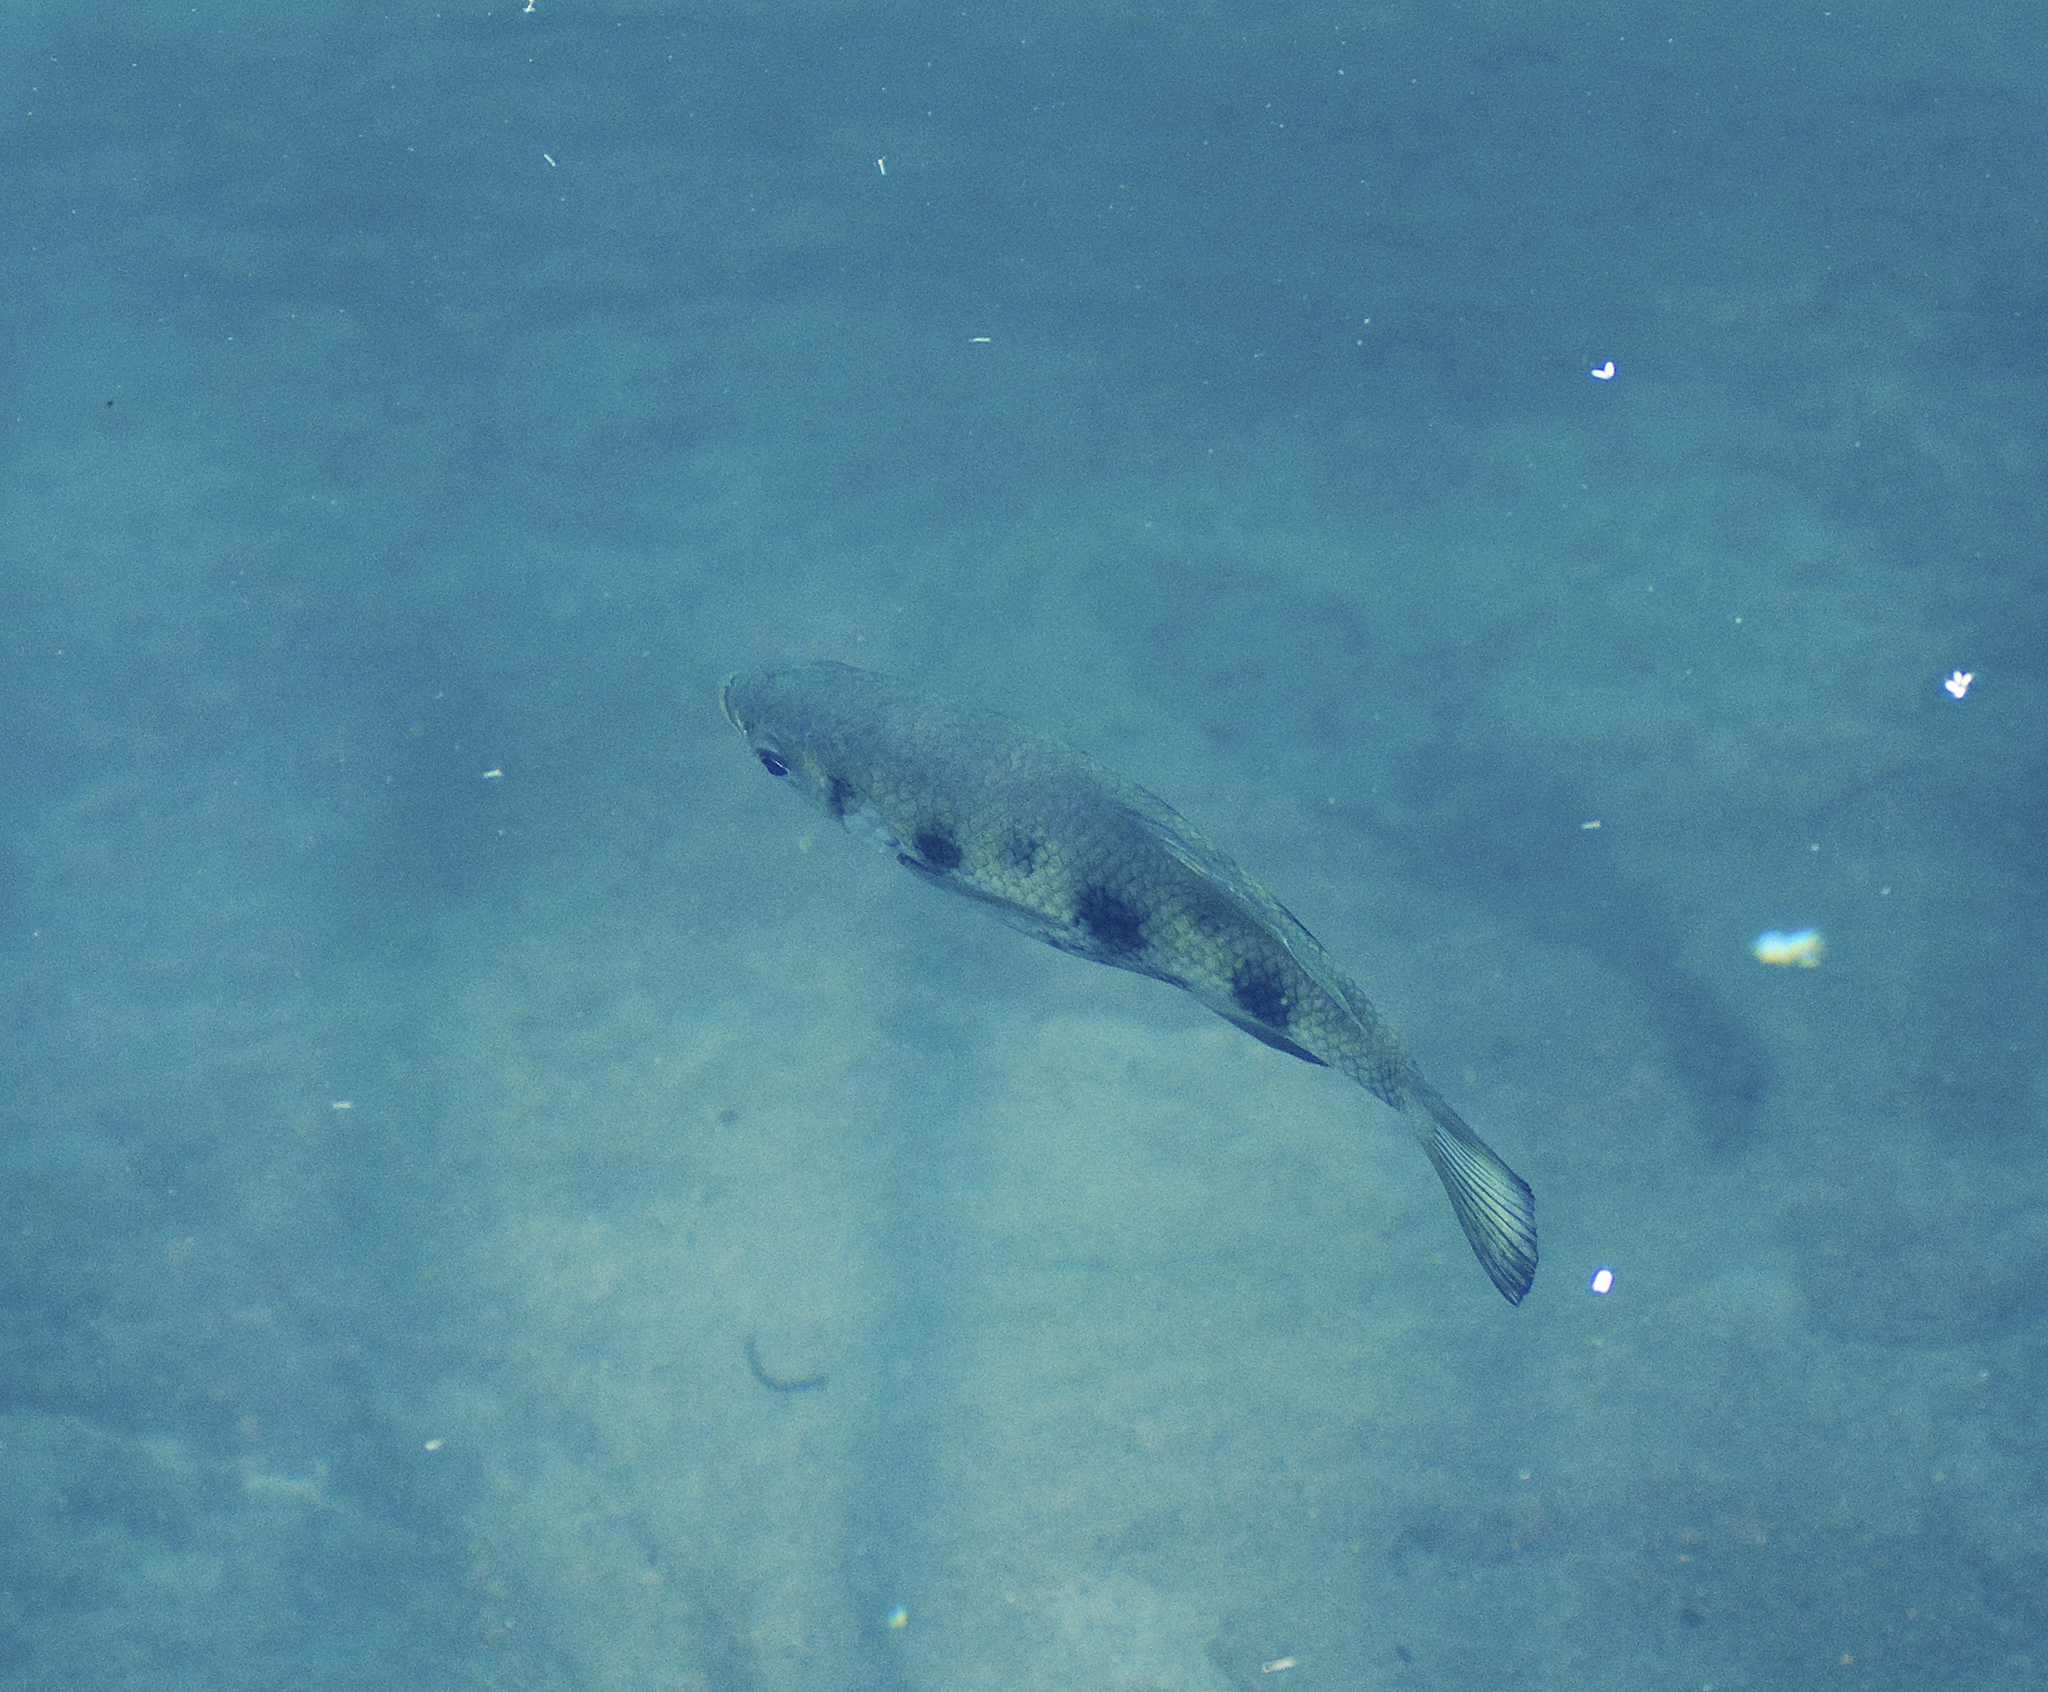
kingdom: Animalia
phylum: Chordata
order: Perciformes
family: Toxotidae
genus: Toxotes
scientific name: Toxotes chatareus
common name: Spotted archerfish
